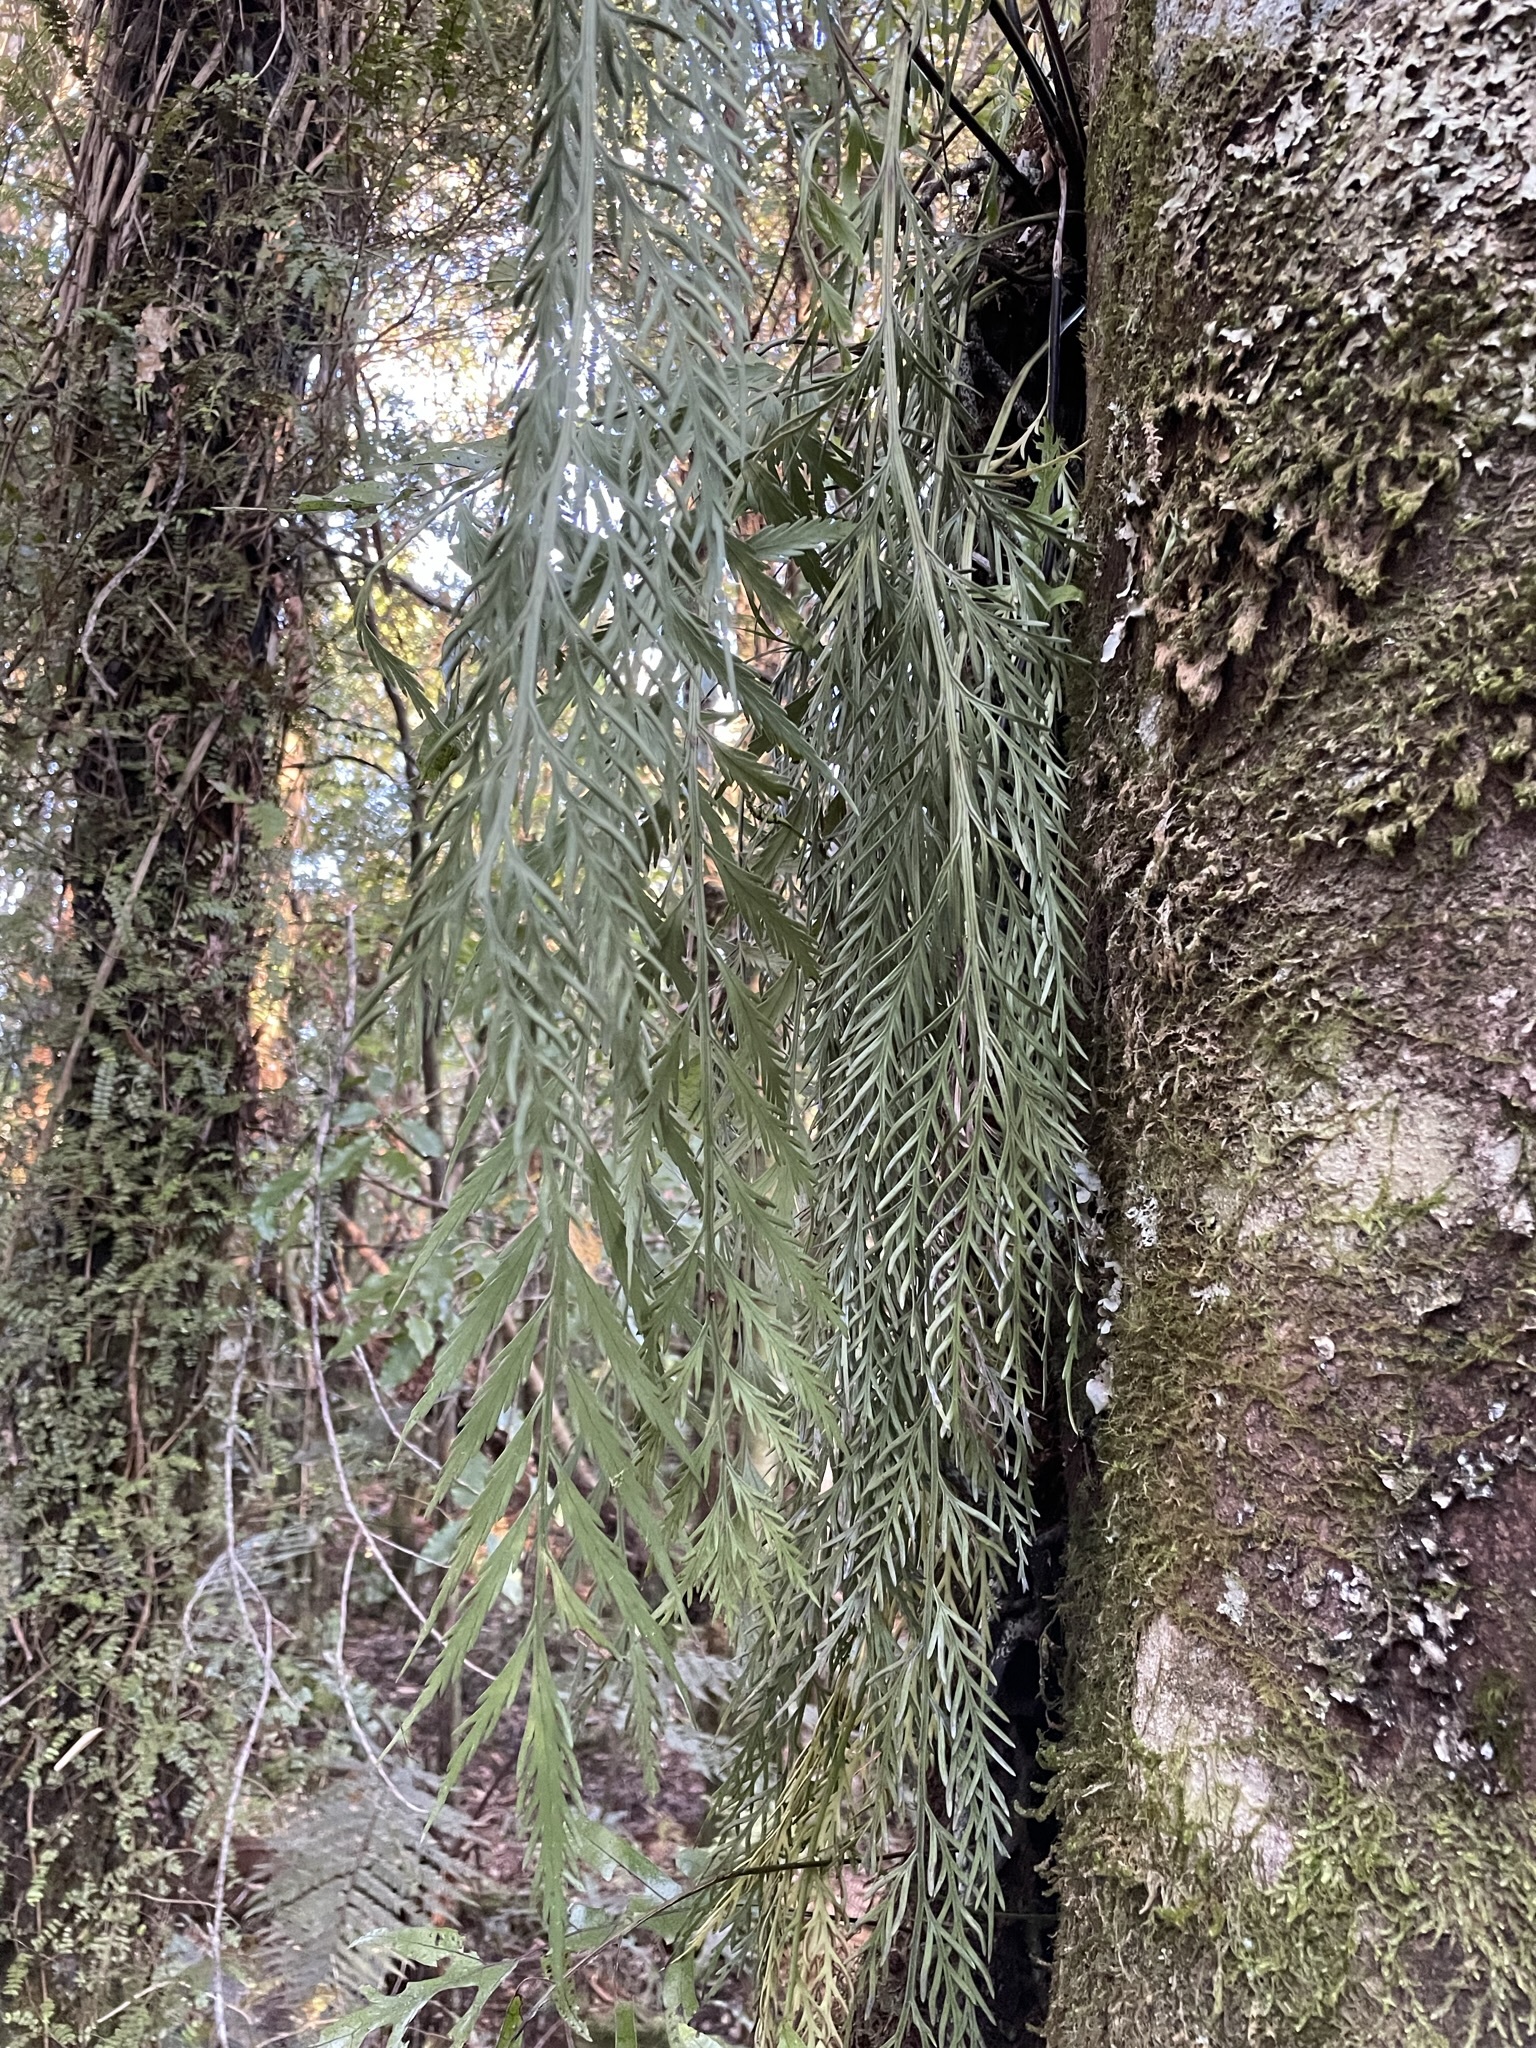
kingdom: Plantae
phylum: Tracheophyta
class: Polypodiopsida
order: Polypodiales
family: Aspleniaceae
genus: Asplenium
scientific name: Asplenium flaccidum
